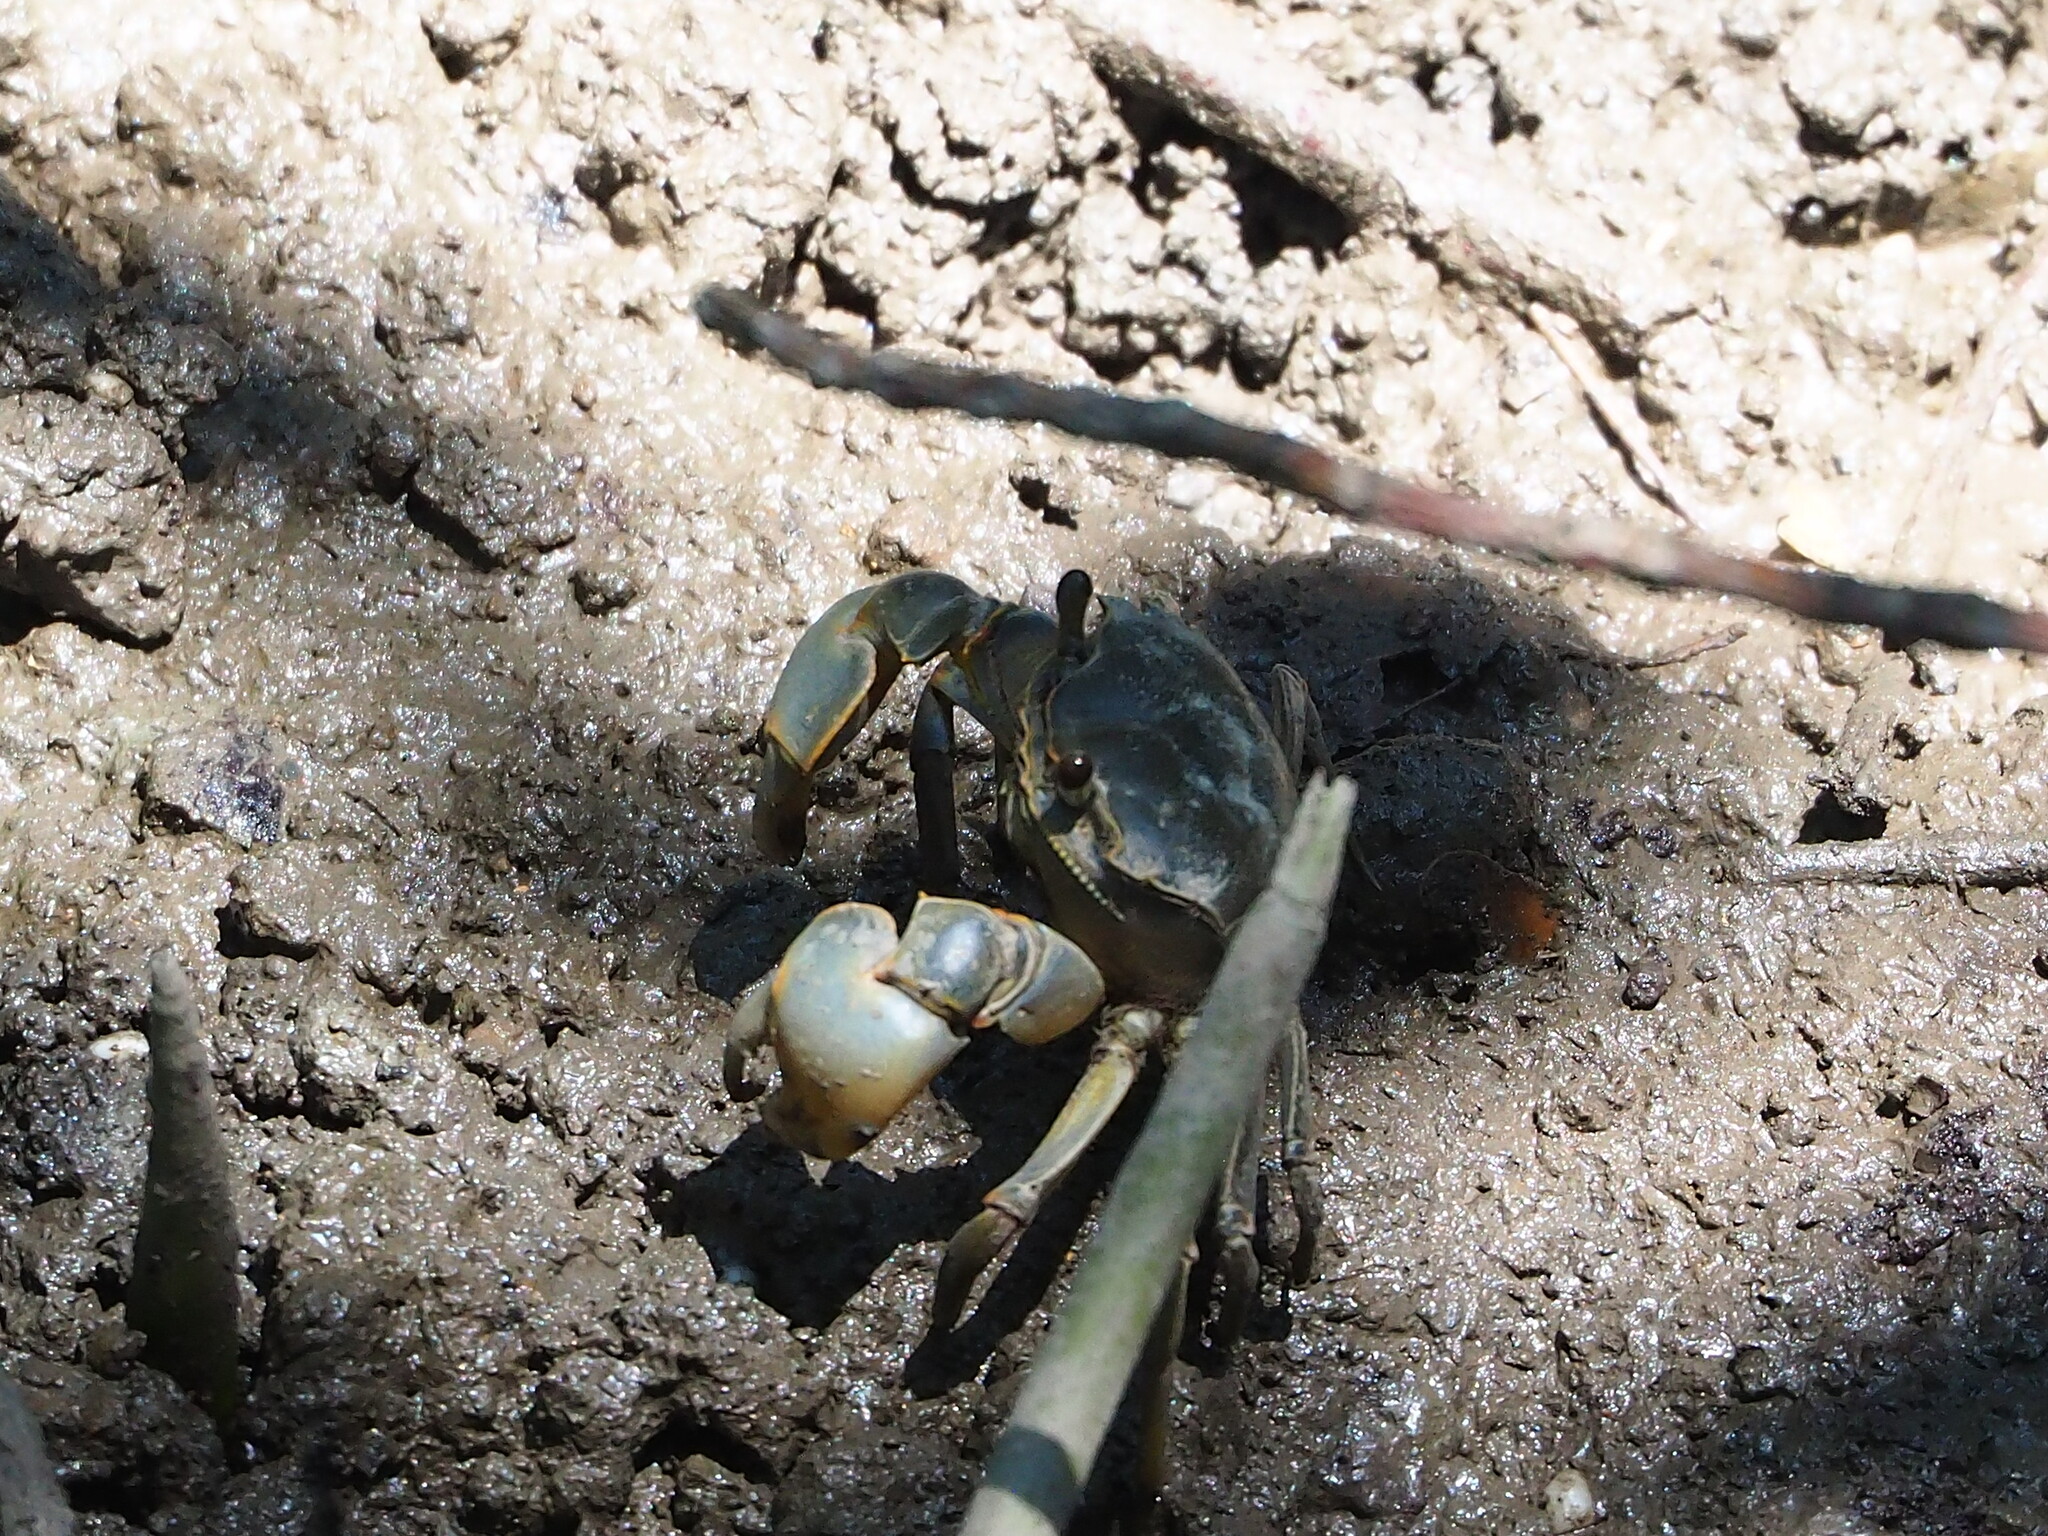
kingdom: Animalia
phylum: Arthropoda
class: Malacostraca
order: Decapoda
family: Varunidae
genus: Helice
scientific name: Helice formosensis
